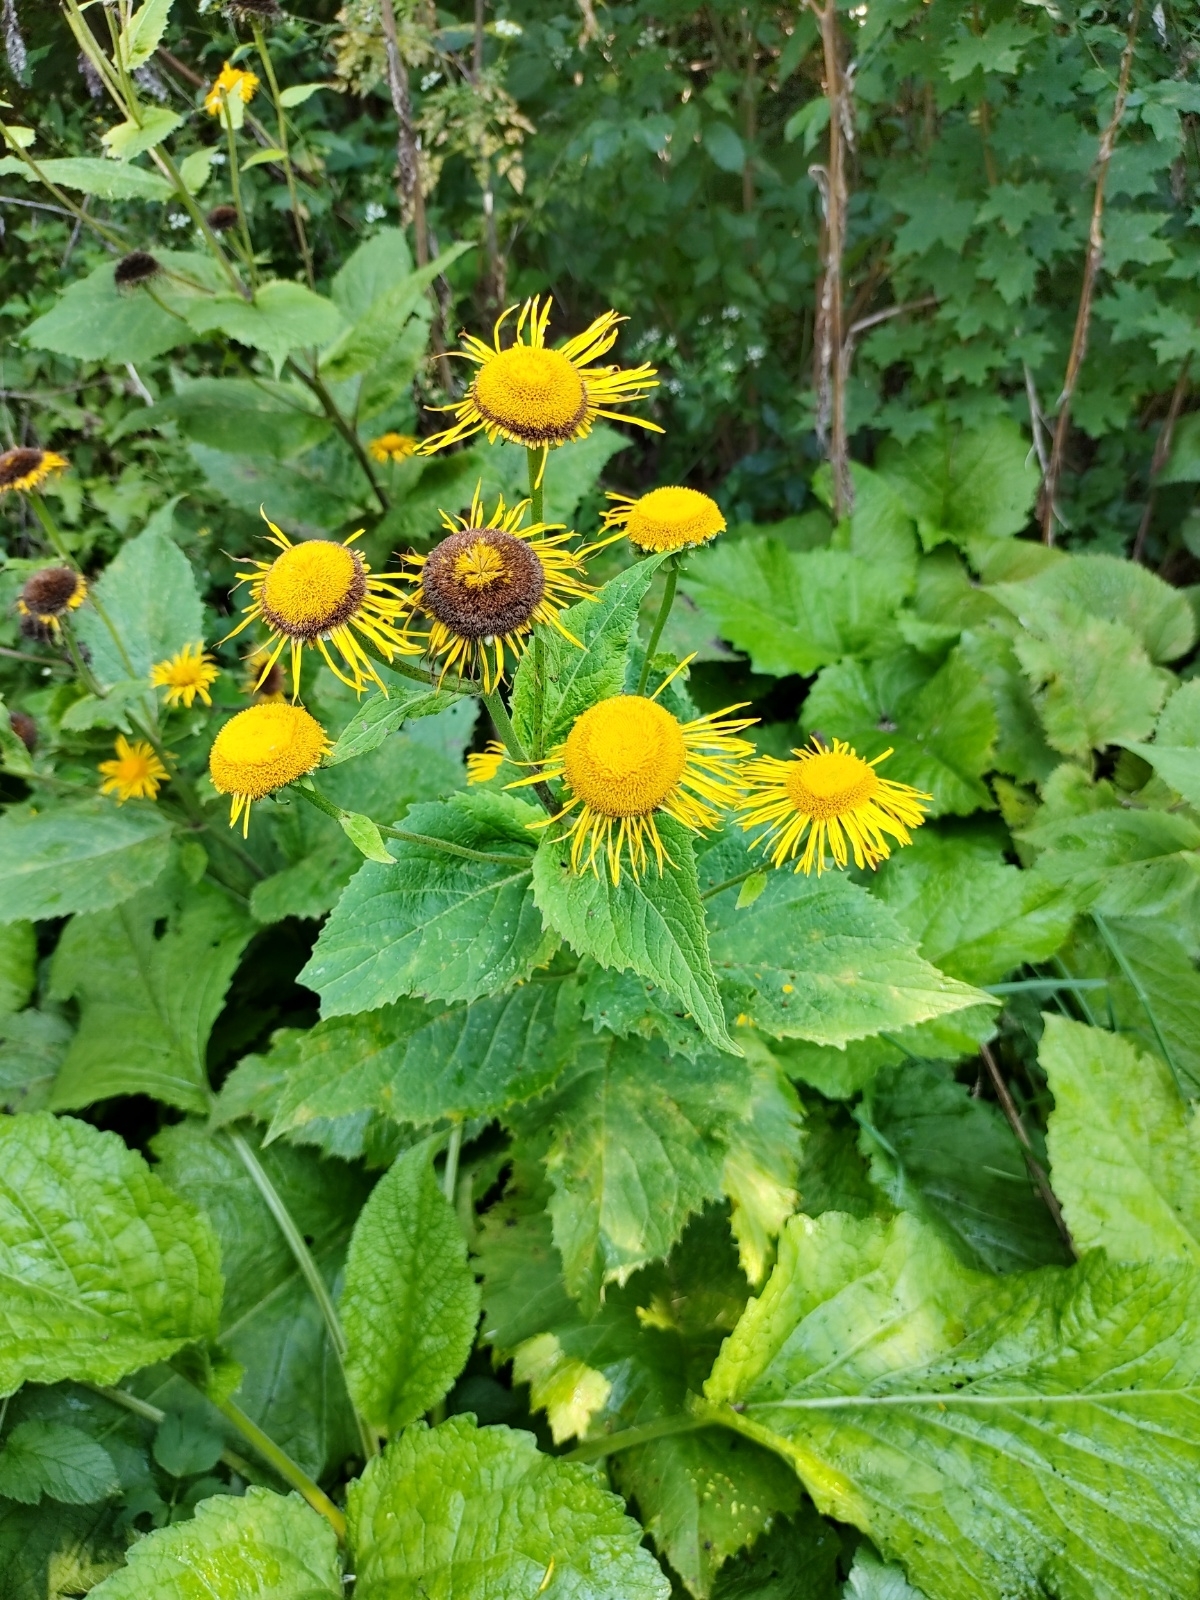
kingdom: Plantae
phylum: Tracheophyta
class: Magnoliopsida
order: Asterales
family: Asteraceae
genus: Telekia
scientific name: Telekia speciosa
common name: Yellow oxeye
